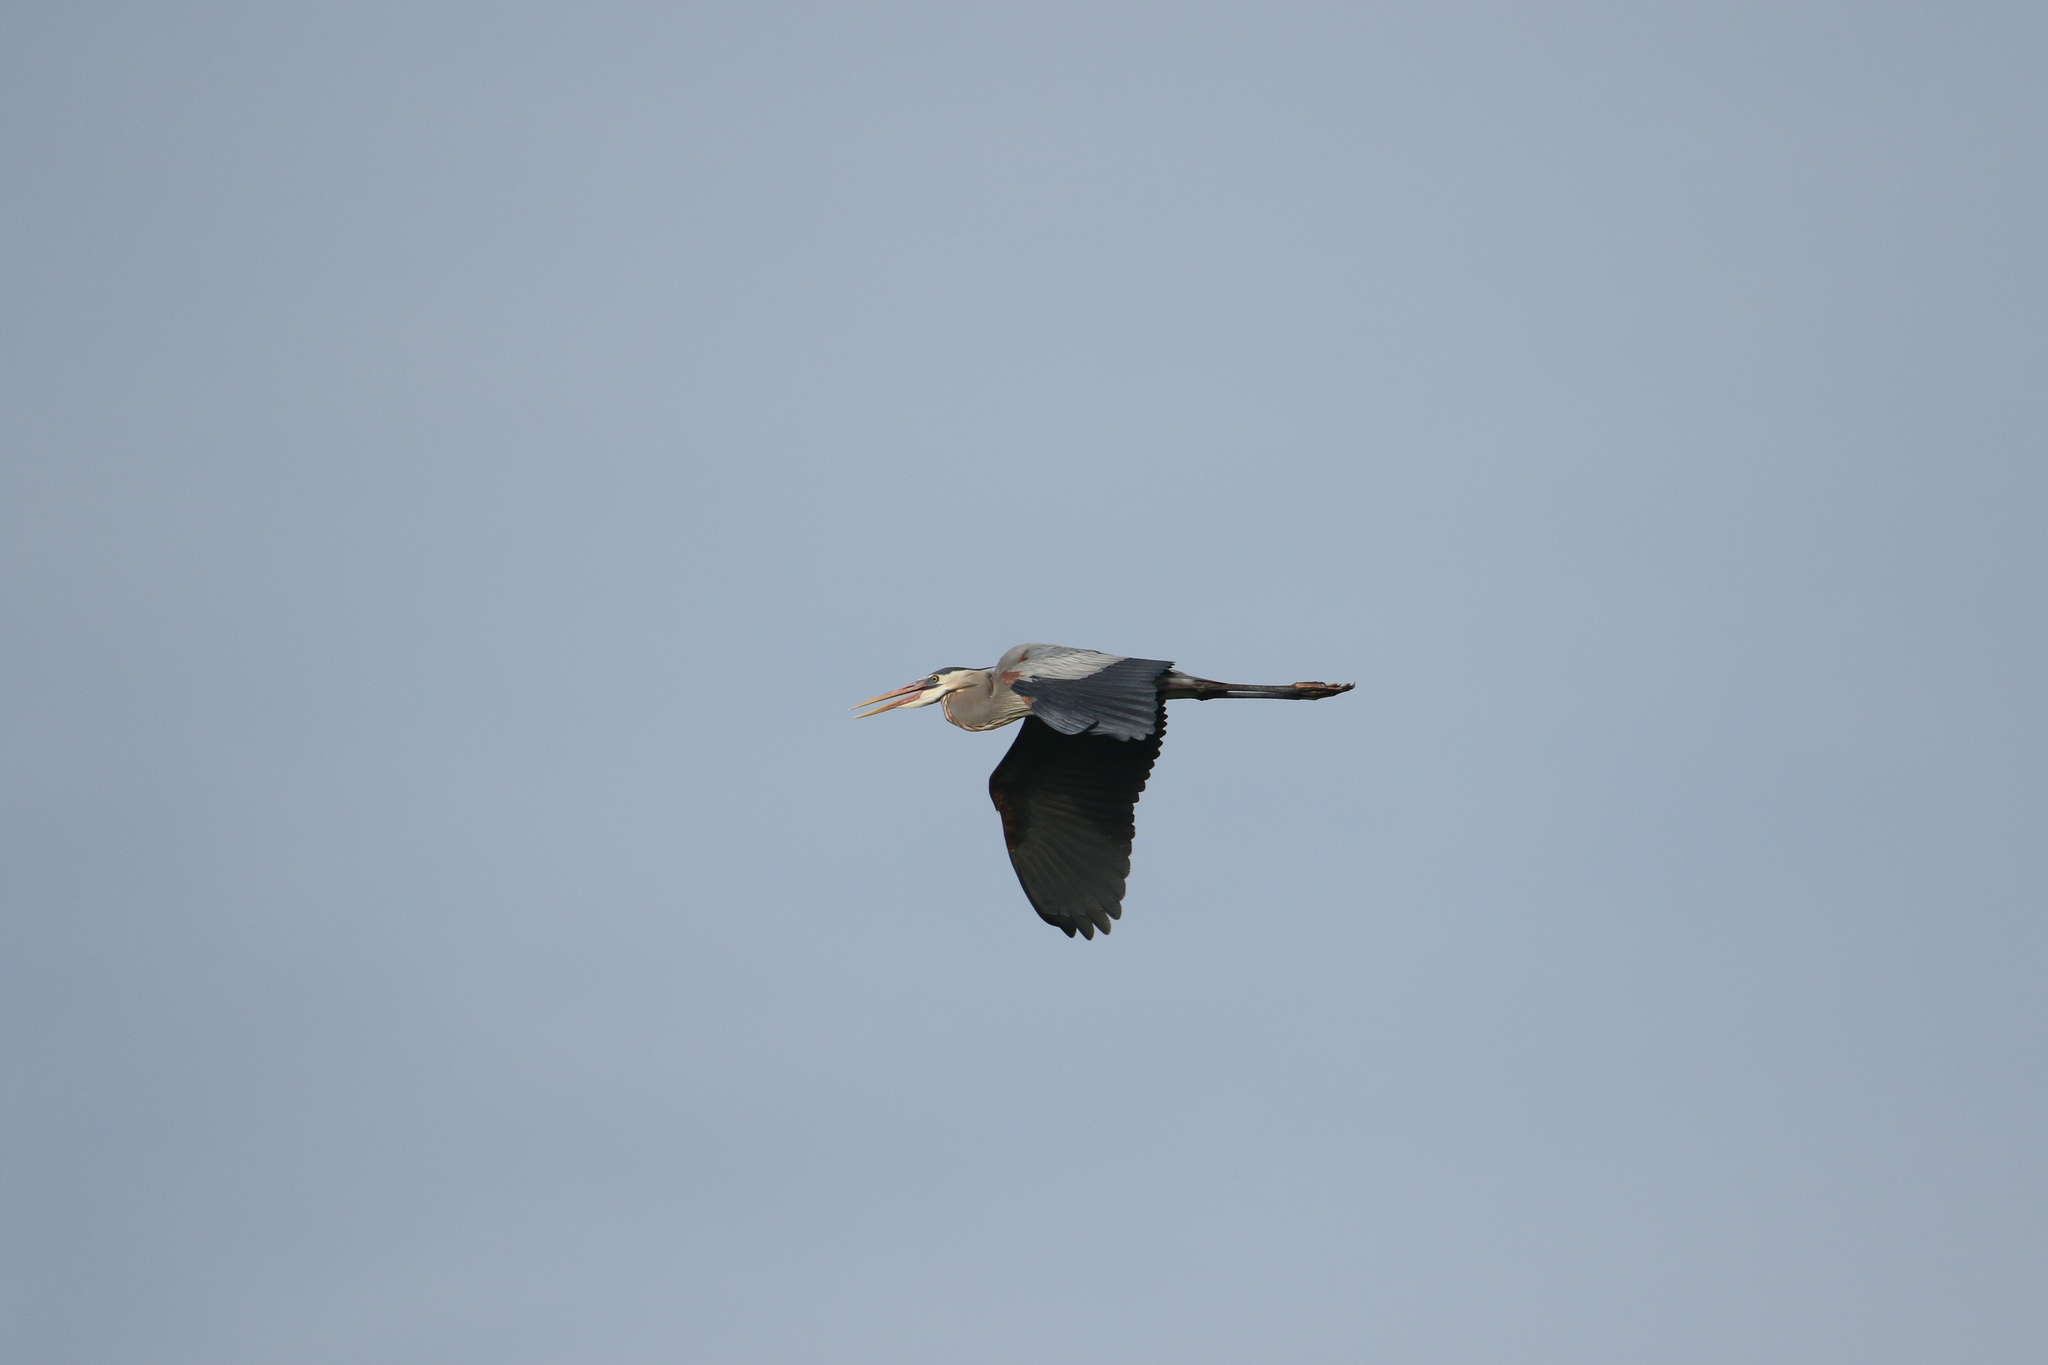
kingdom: Animalia
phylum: Chordata
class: Aves
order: Pelecaniformes
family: Ardeidae
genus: Ardea
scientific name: Ardea herodias
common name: Great blue heron
